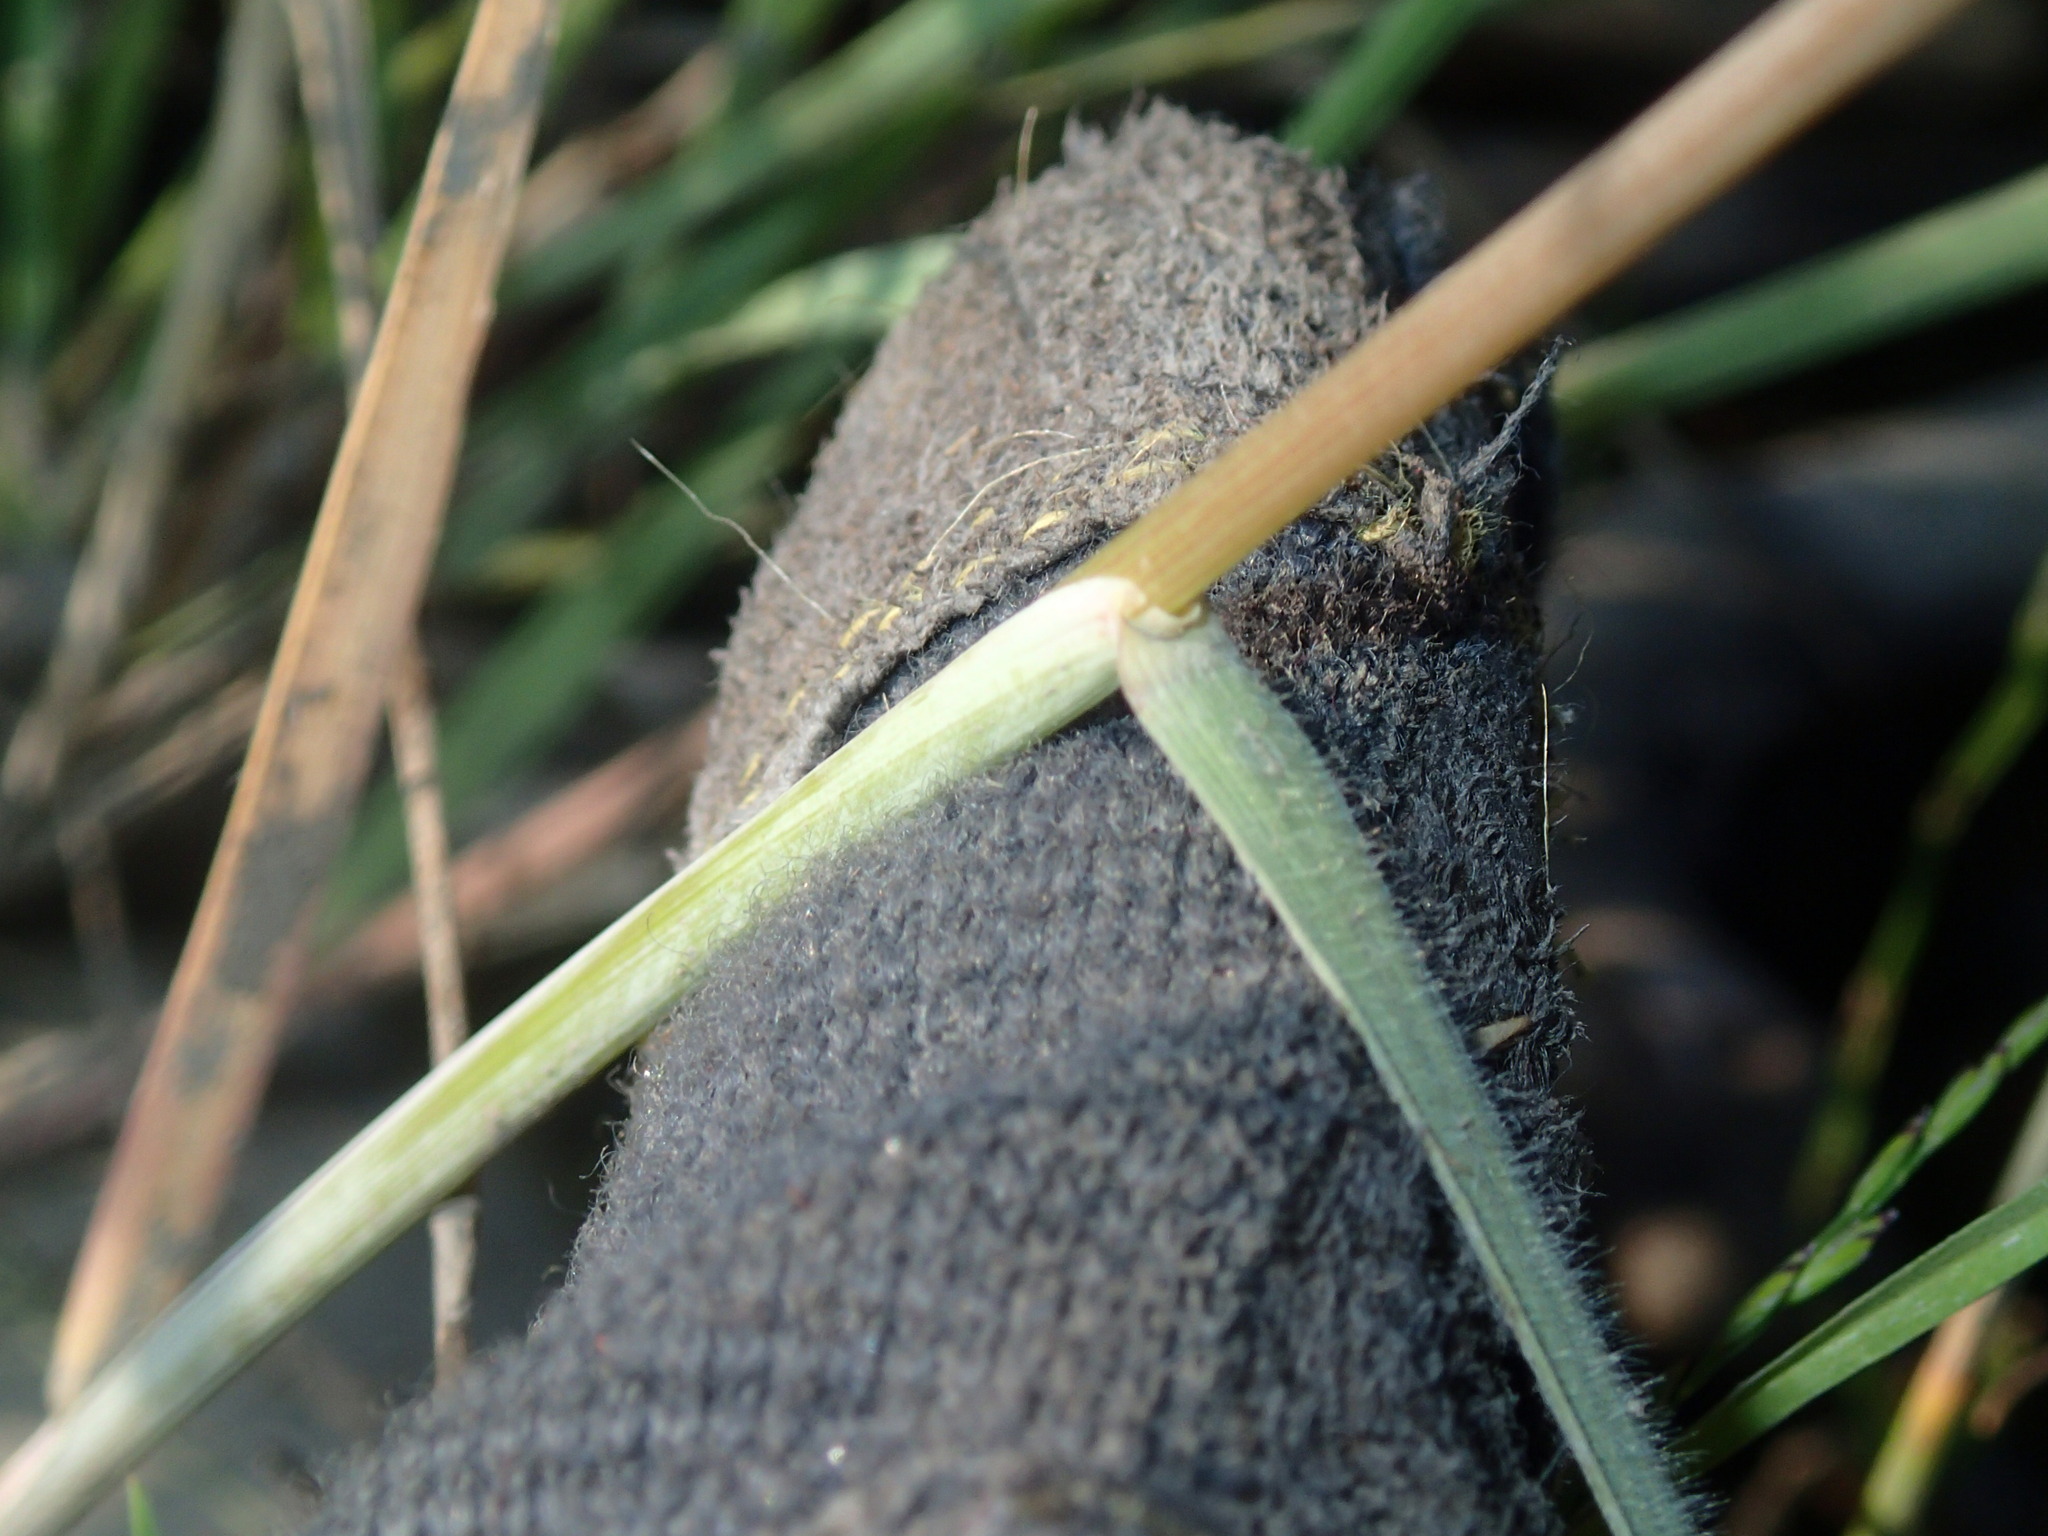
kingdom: Plantae
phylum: Tracheophyta
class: Liliopsida
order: Poales
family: Poaceae
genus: Hordeum
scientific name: Hordeum jubatum
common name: Foxtail barley
